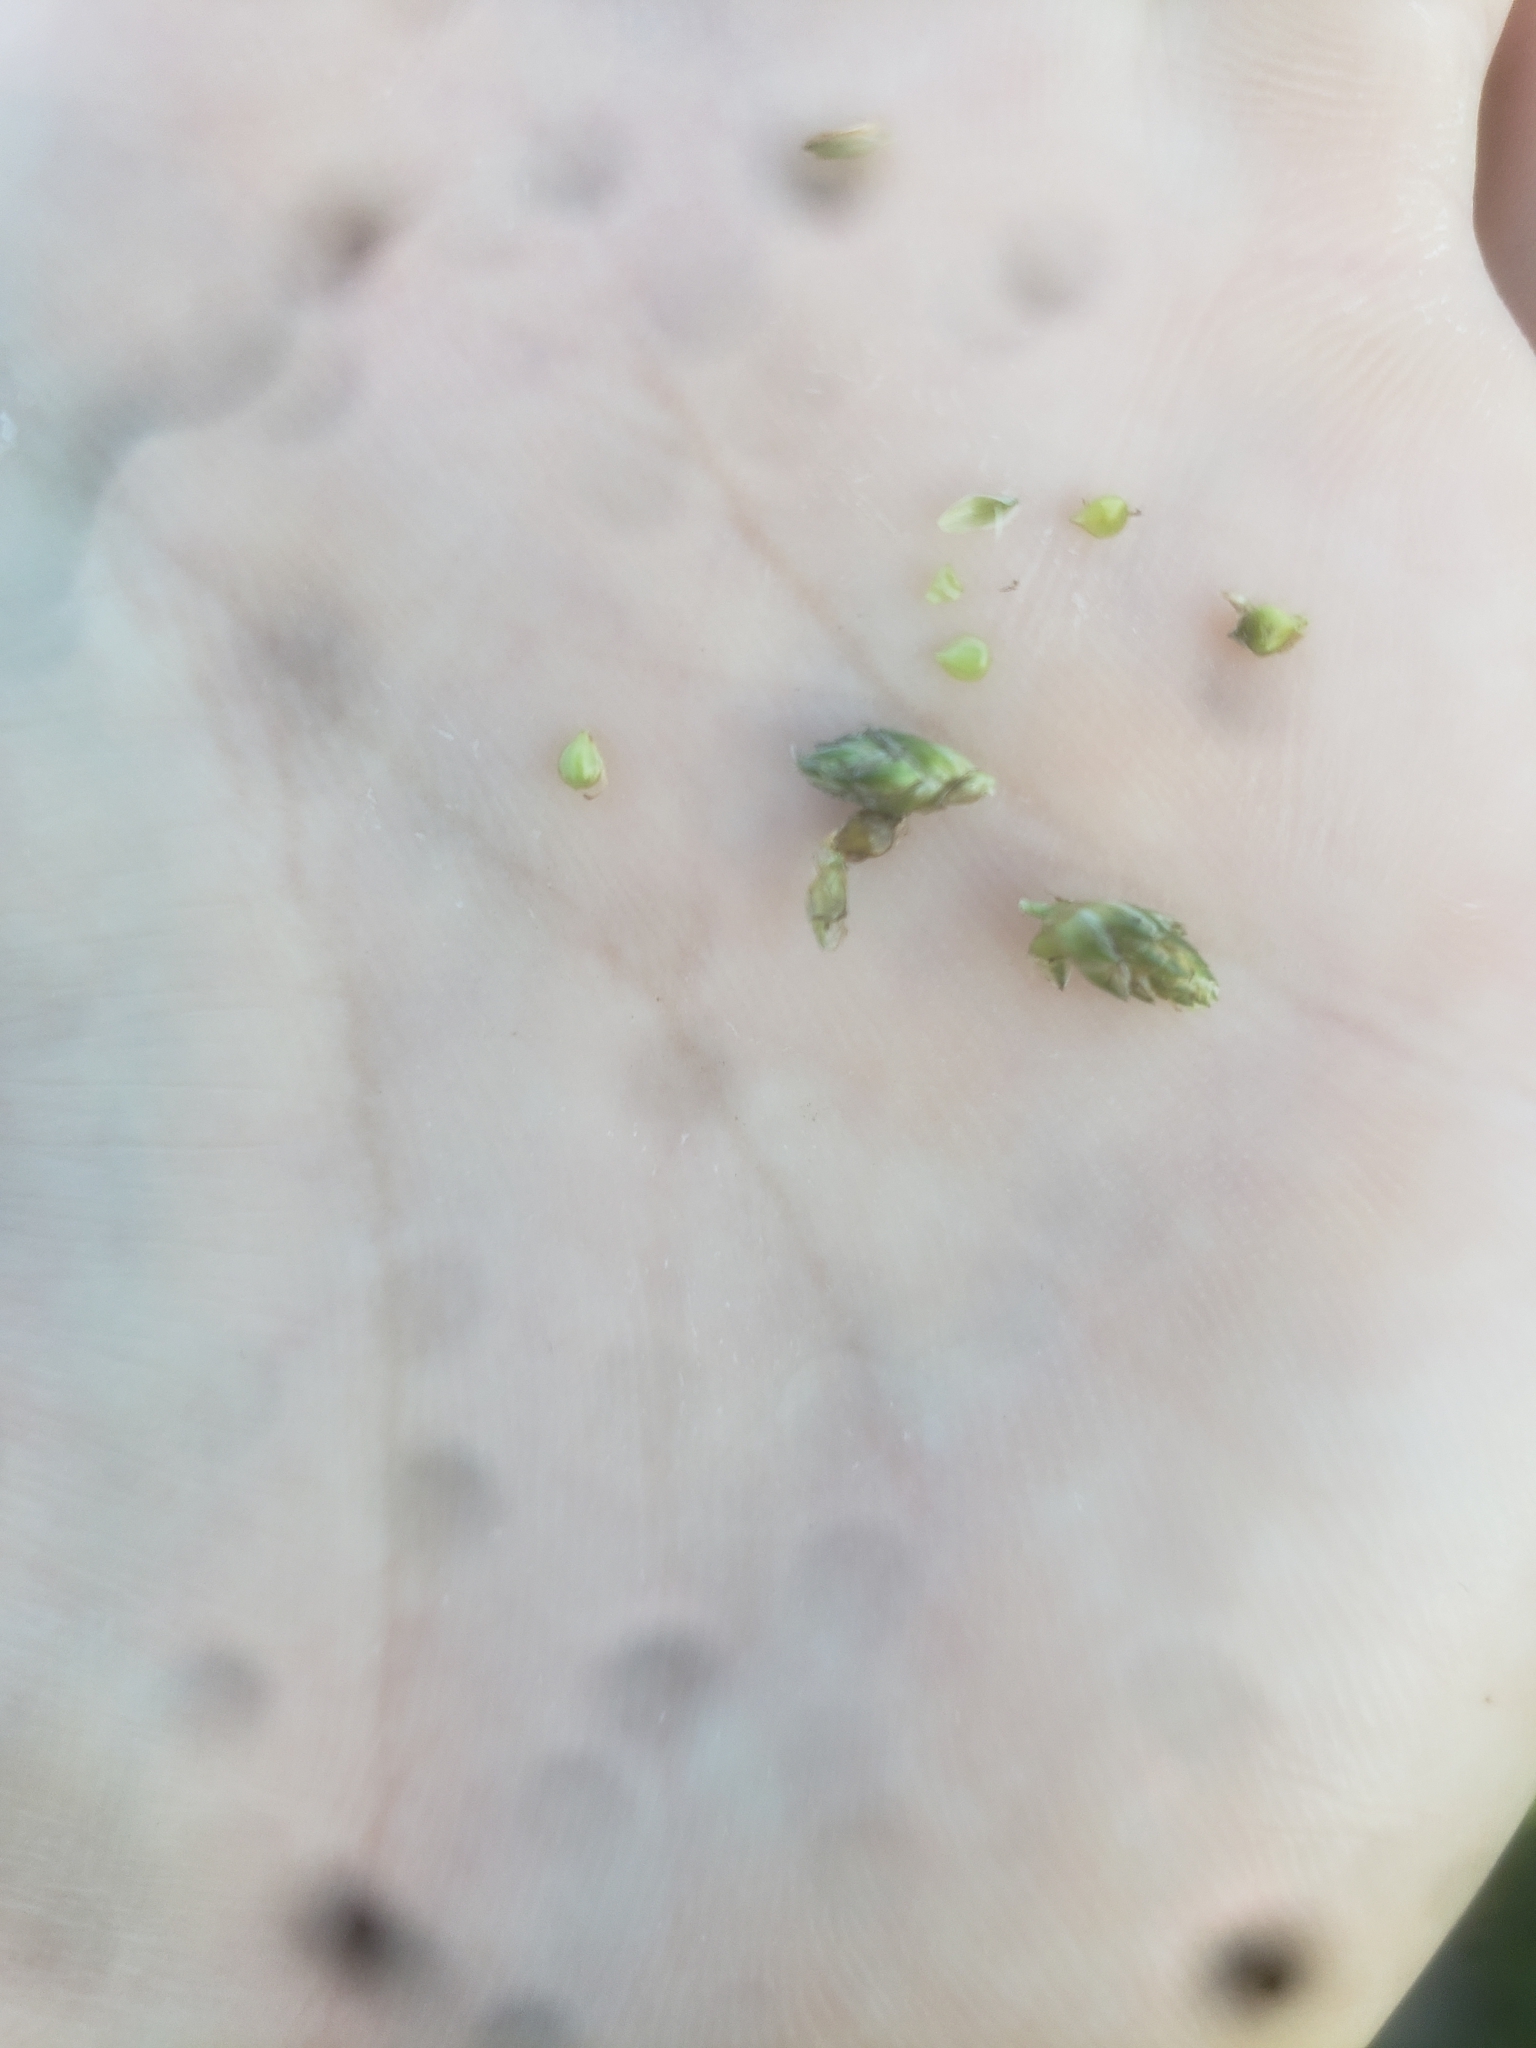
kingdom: Plantae
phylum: Tracheophyta
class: Liliopsida
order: Poales
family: Cyperaceae
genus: Schoenoplectiella
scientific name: Schoenoplectiella smithii
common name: Smith's bulrush
